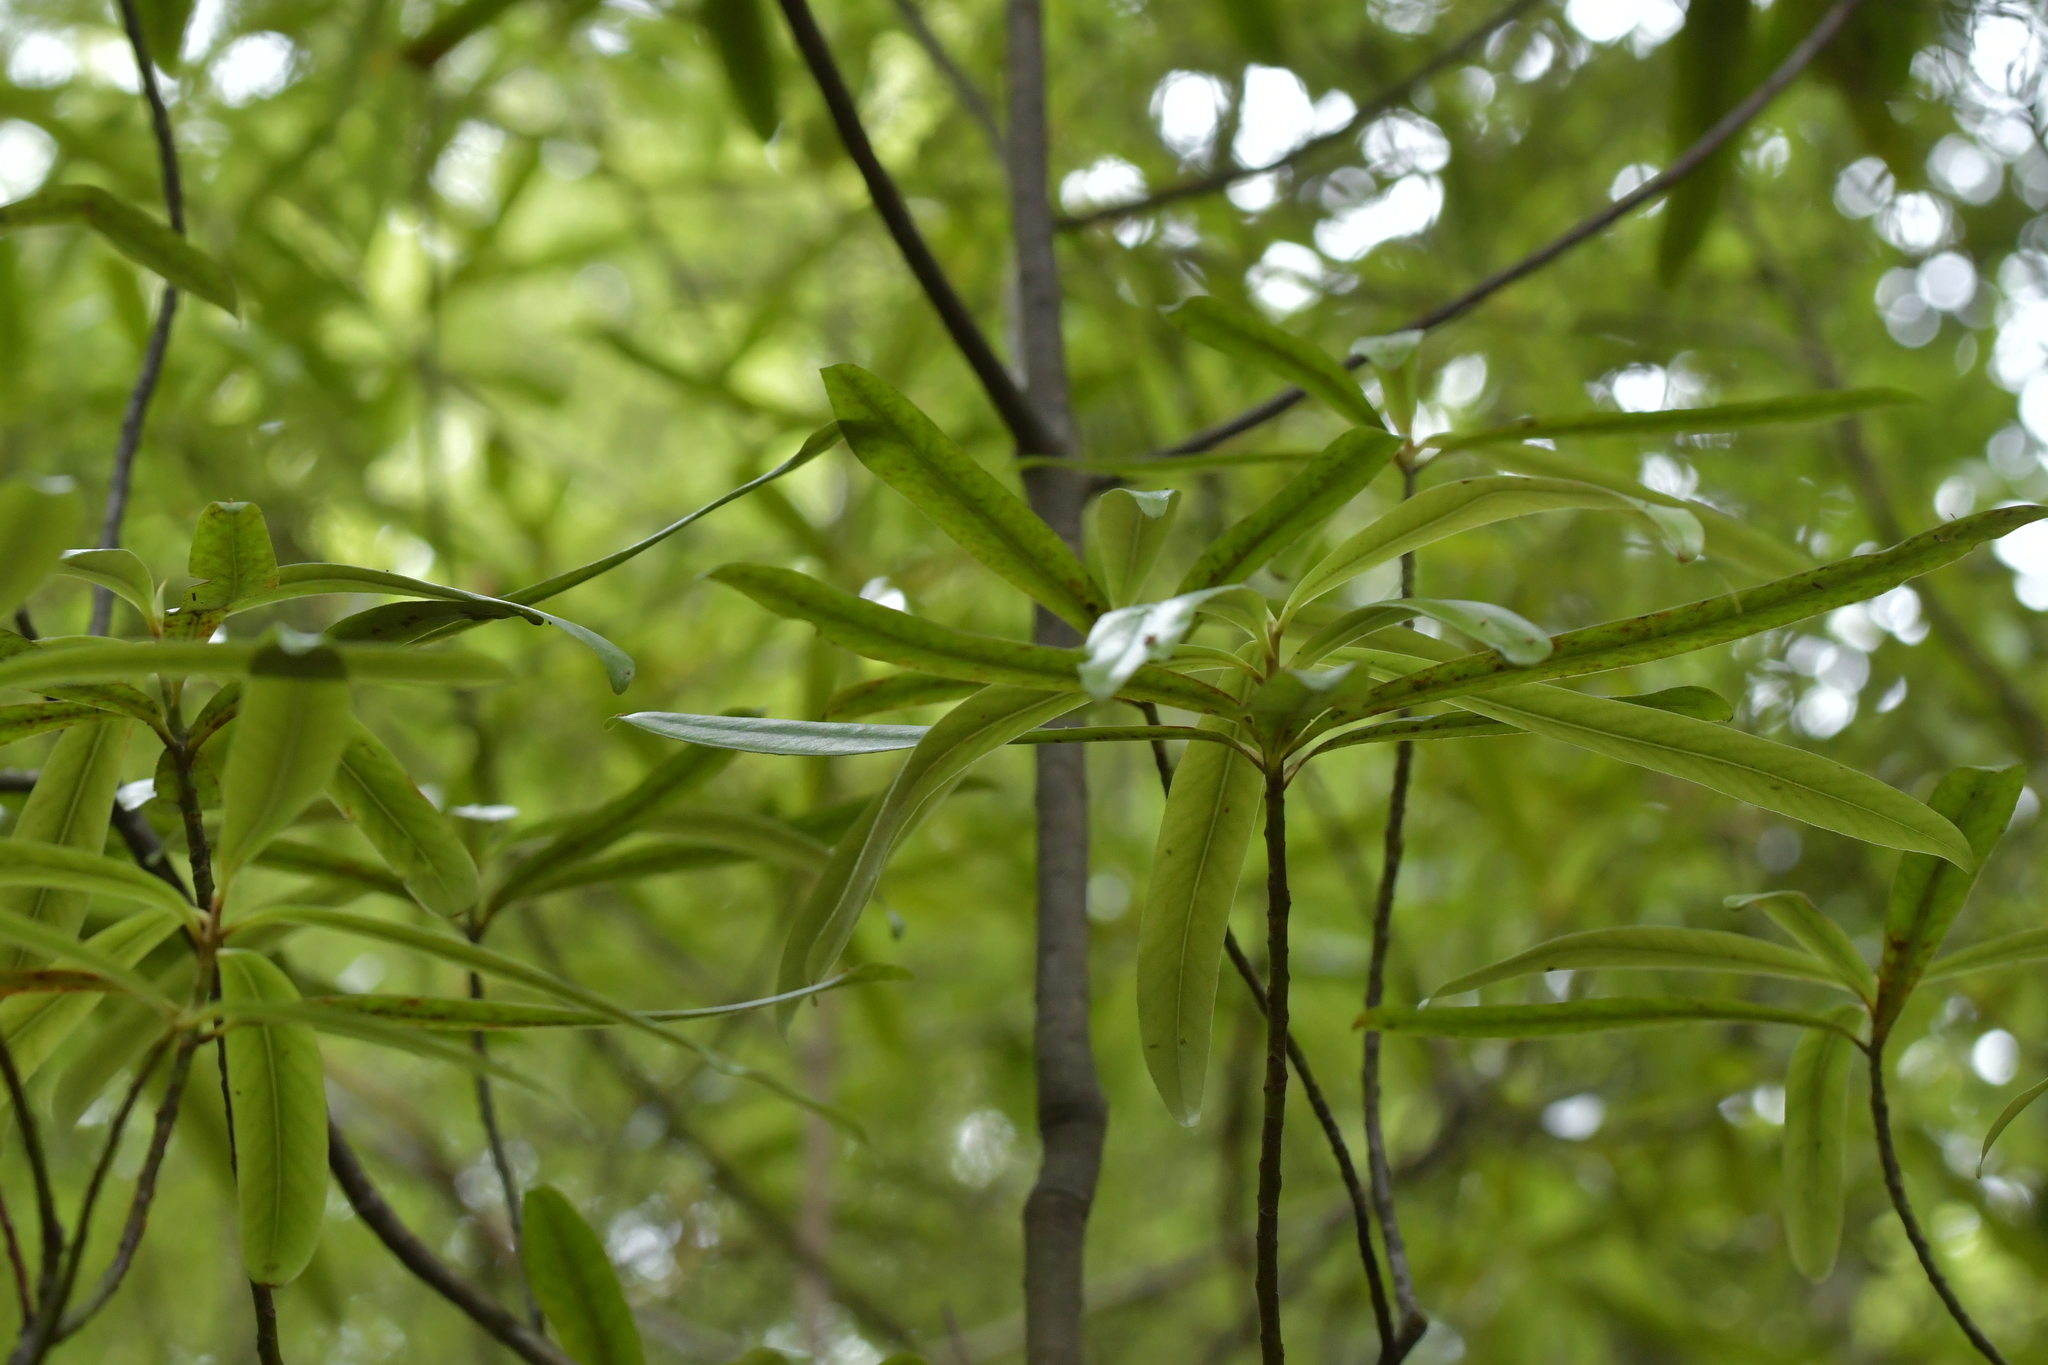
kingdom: Plantae
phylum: Tracheophyta
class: Magnoliopsida
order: Ericales
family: Primulaceae
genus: Myrsine
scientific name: Myrsine salicina
